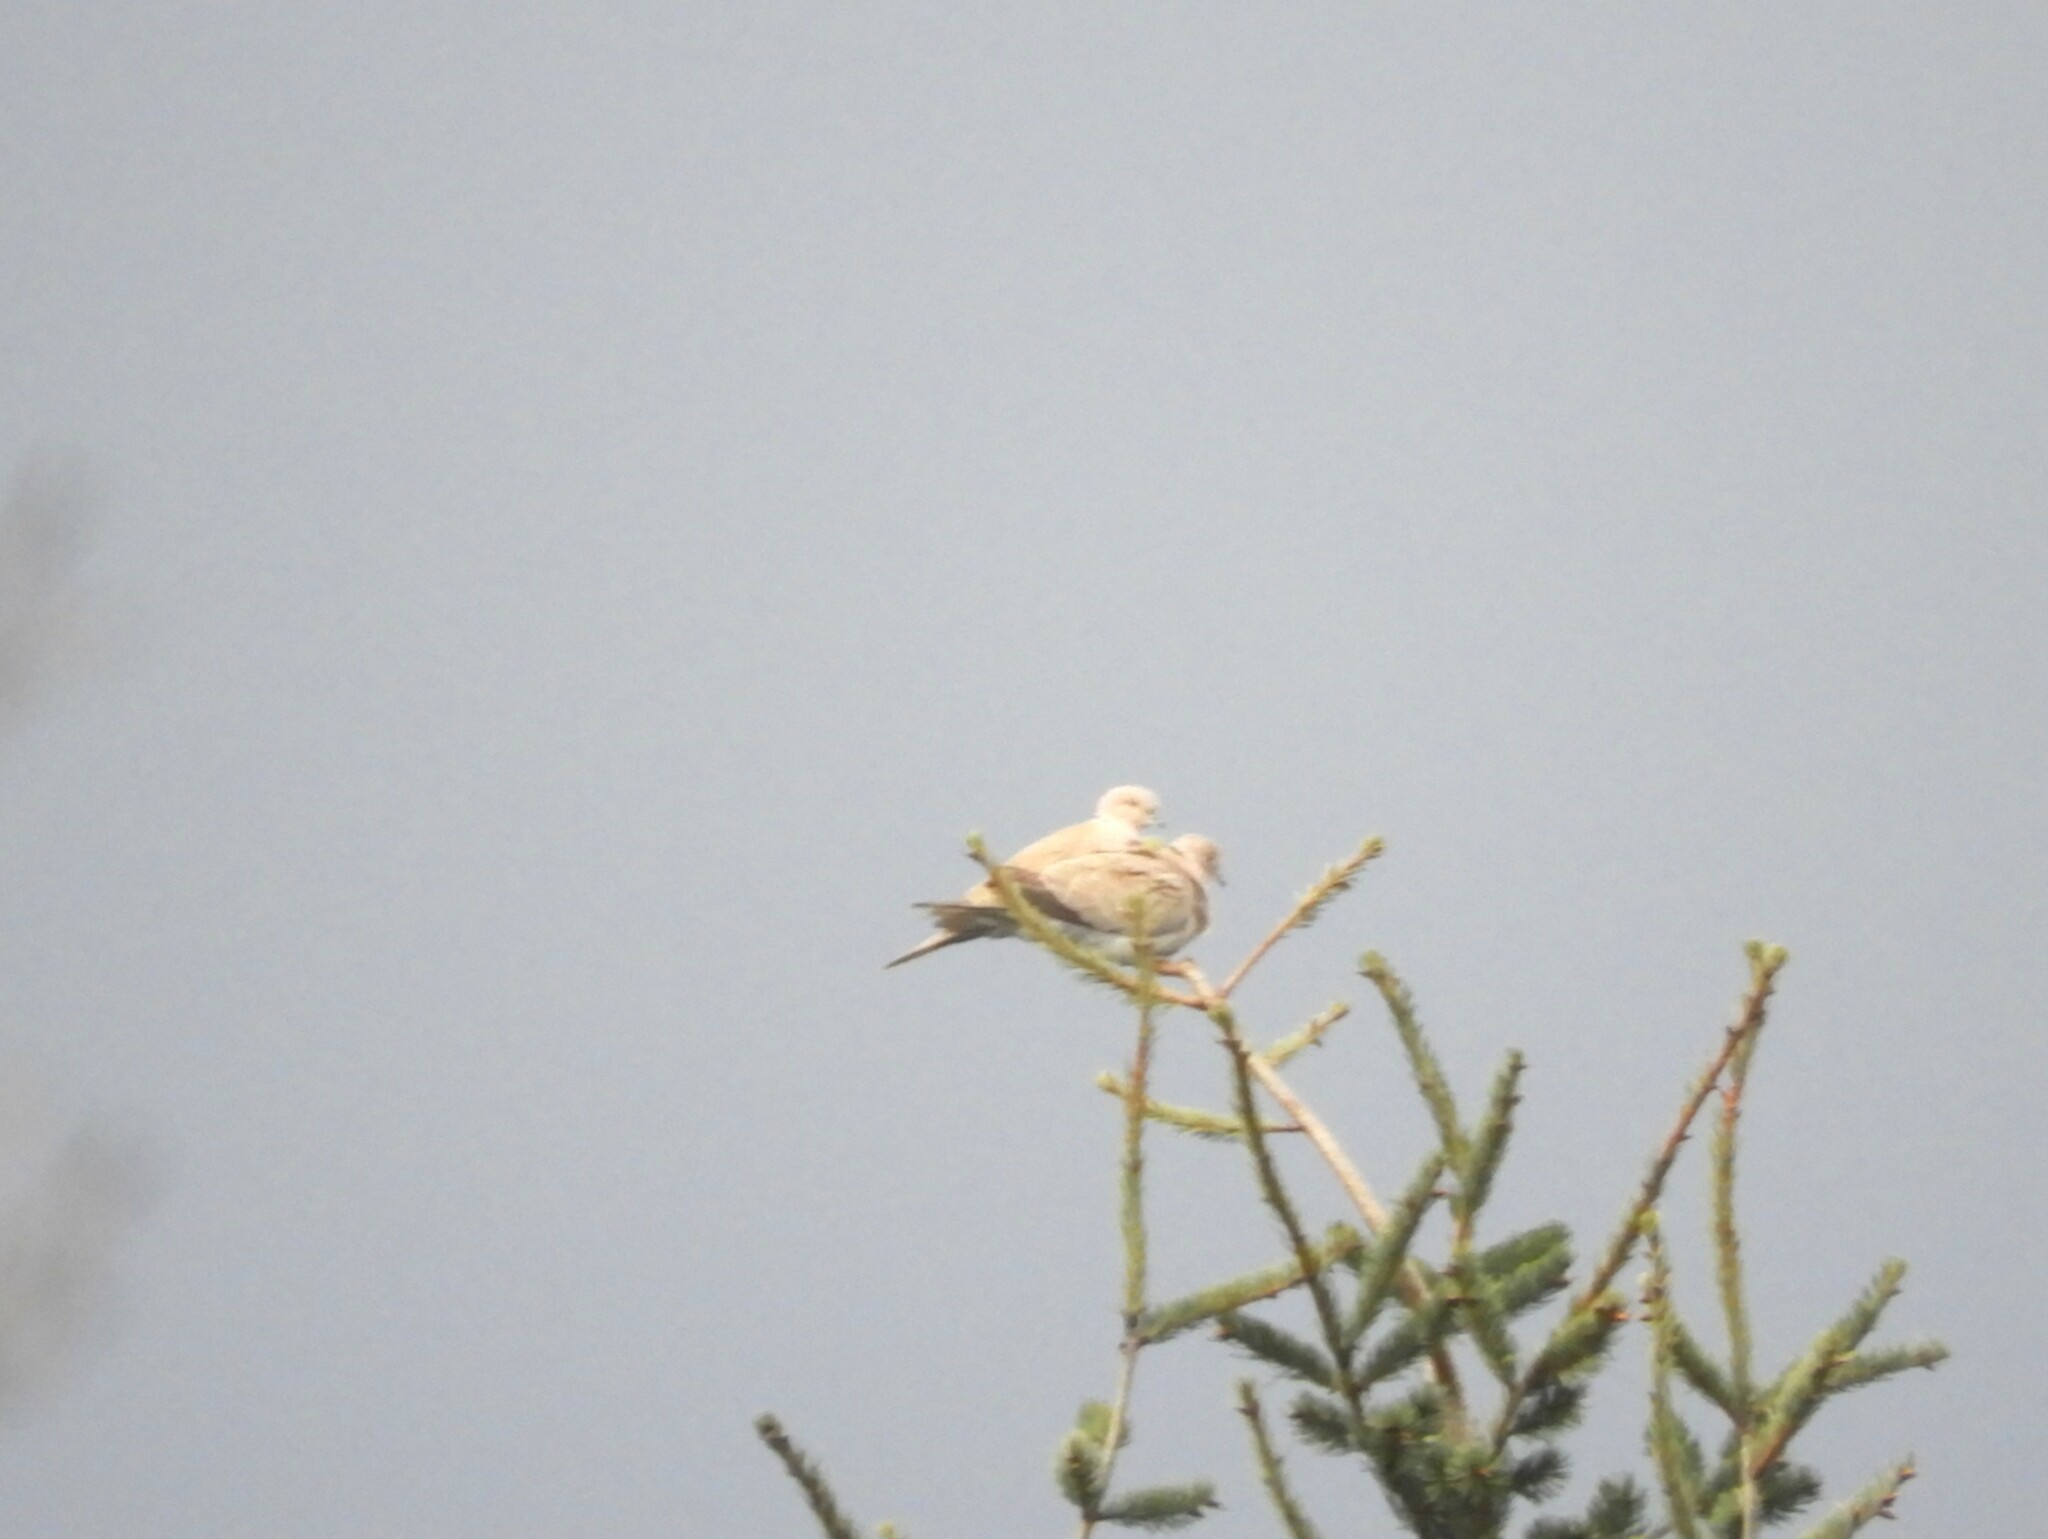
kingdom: Animalia
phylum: Chordata
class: Aves
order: Columbiformes
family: Columbidae
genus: Streptopelia
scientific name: Streptopelia decaocto
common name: Eurasian collared dove
